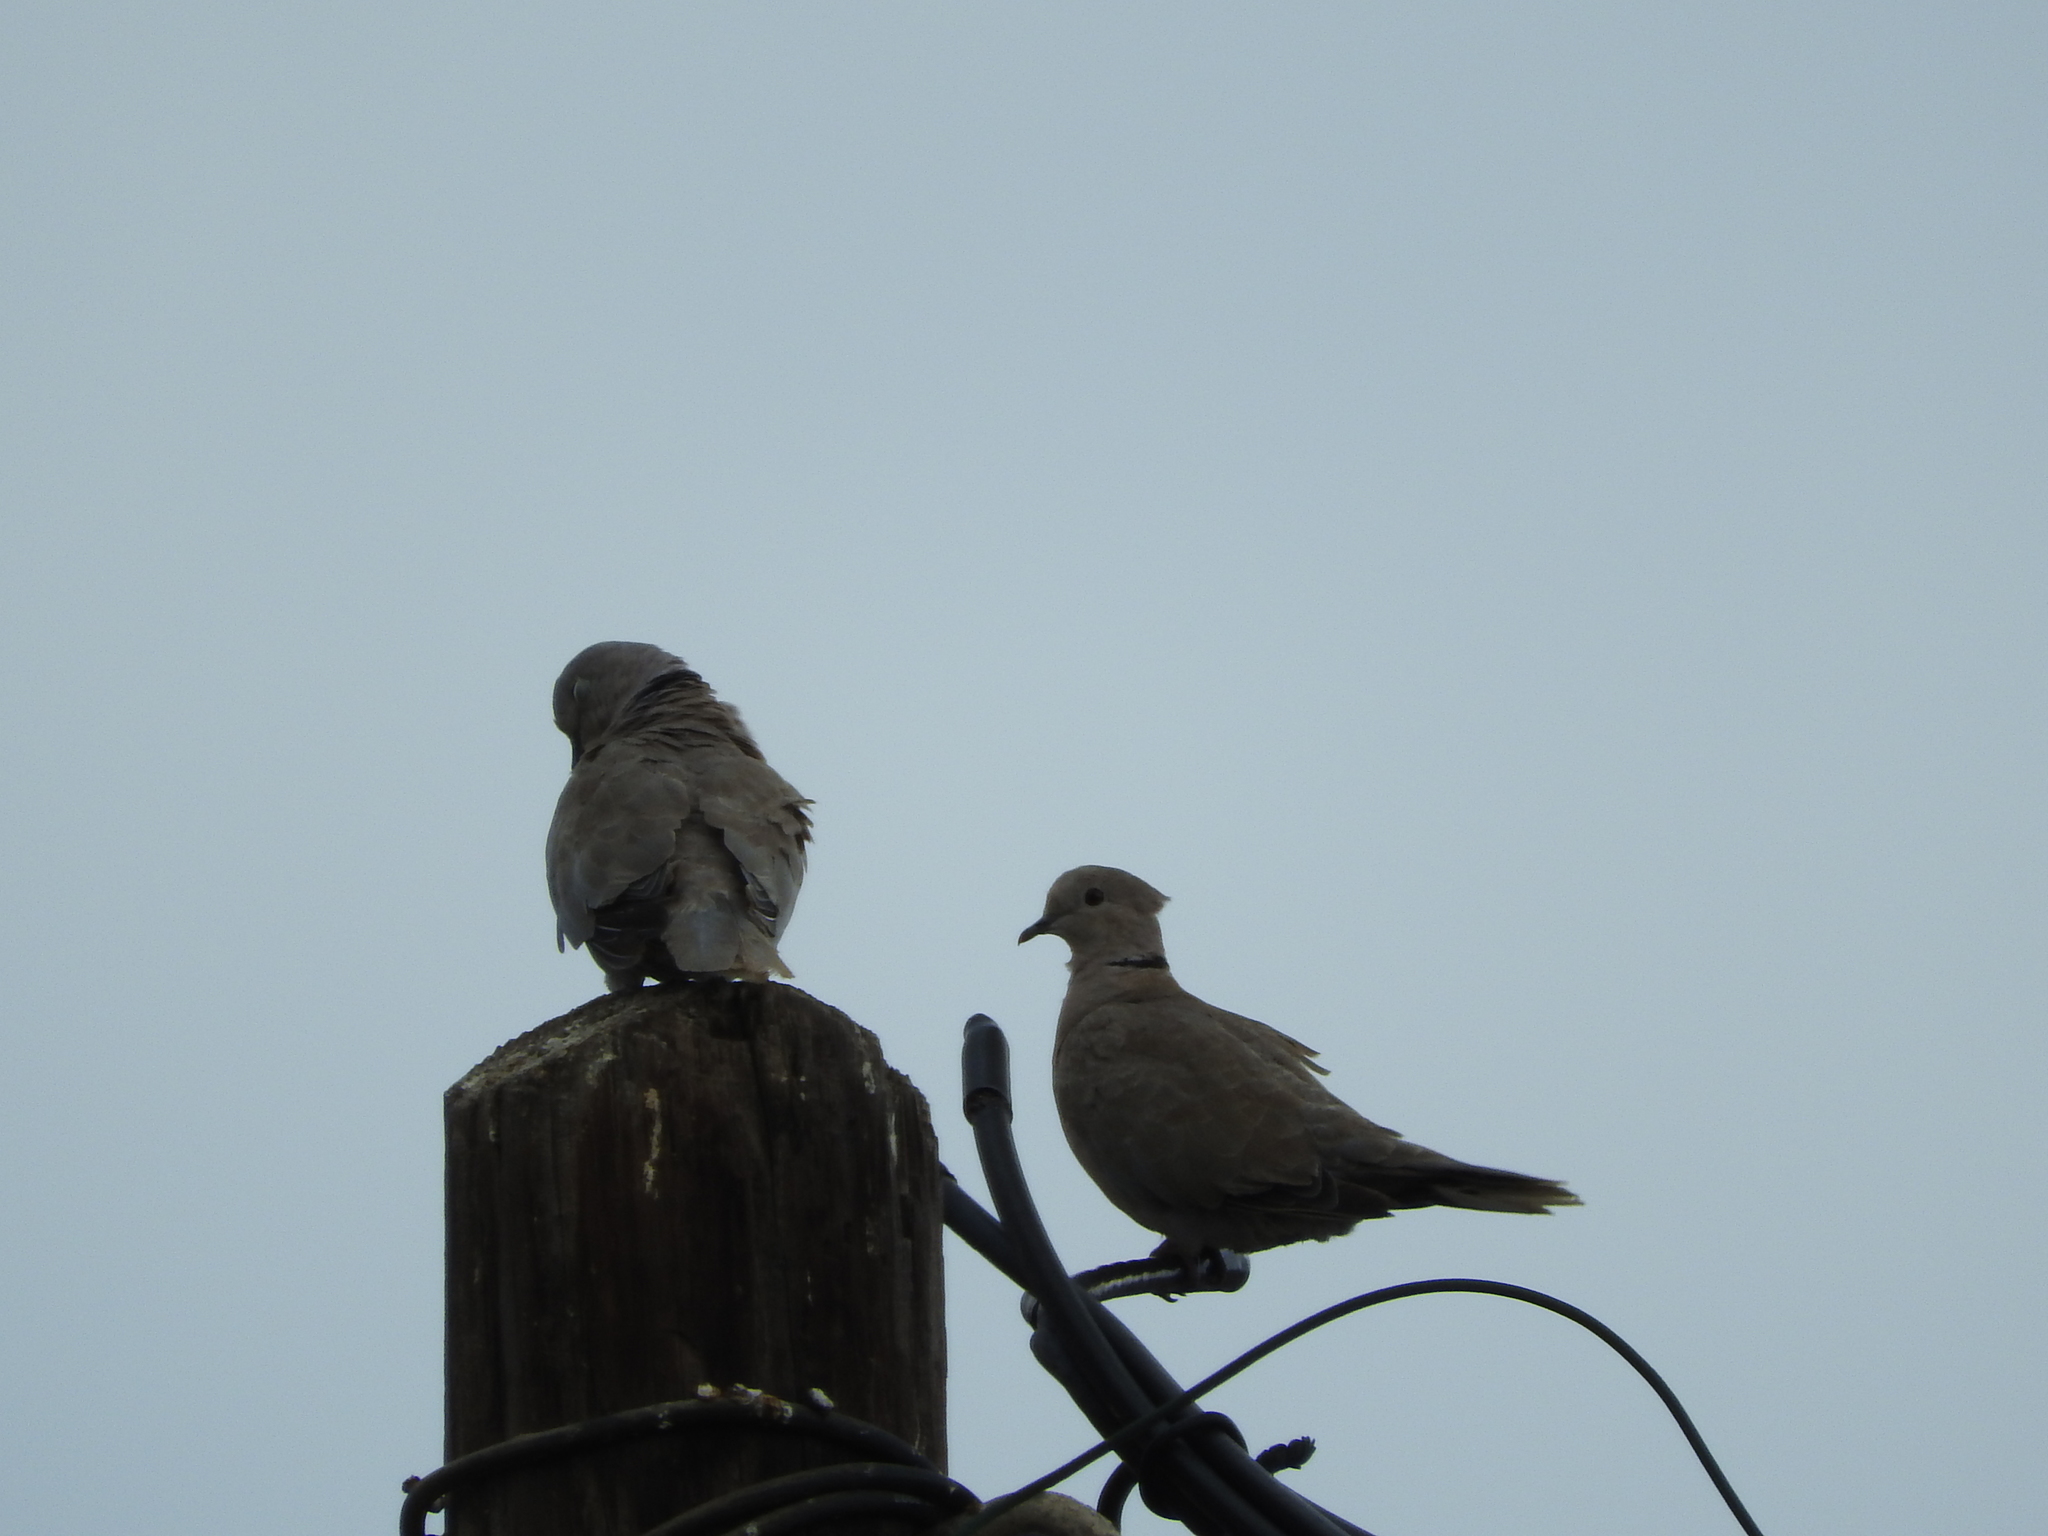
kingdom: Animalia
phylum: Chordata
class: Aves
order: Columbiformes
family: Columbidae
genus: Streptopelia
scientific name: Streptopelia decaocto
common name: Eurasian collared dove
